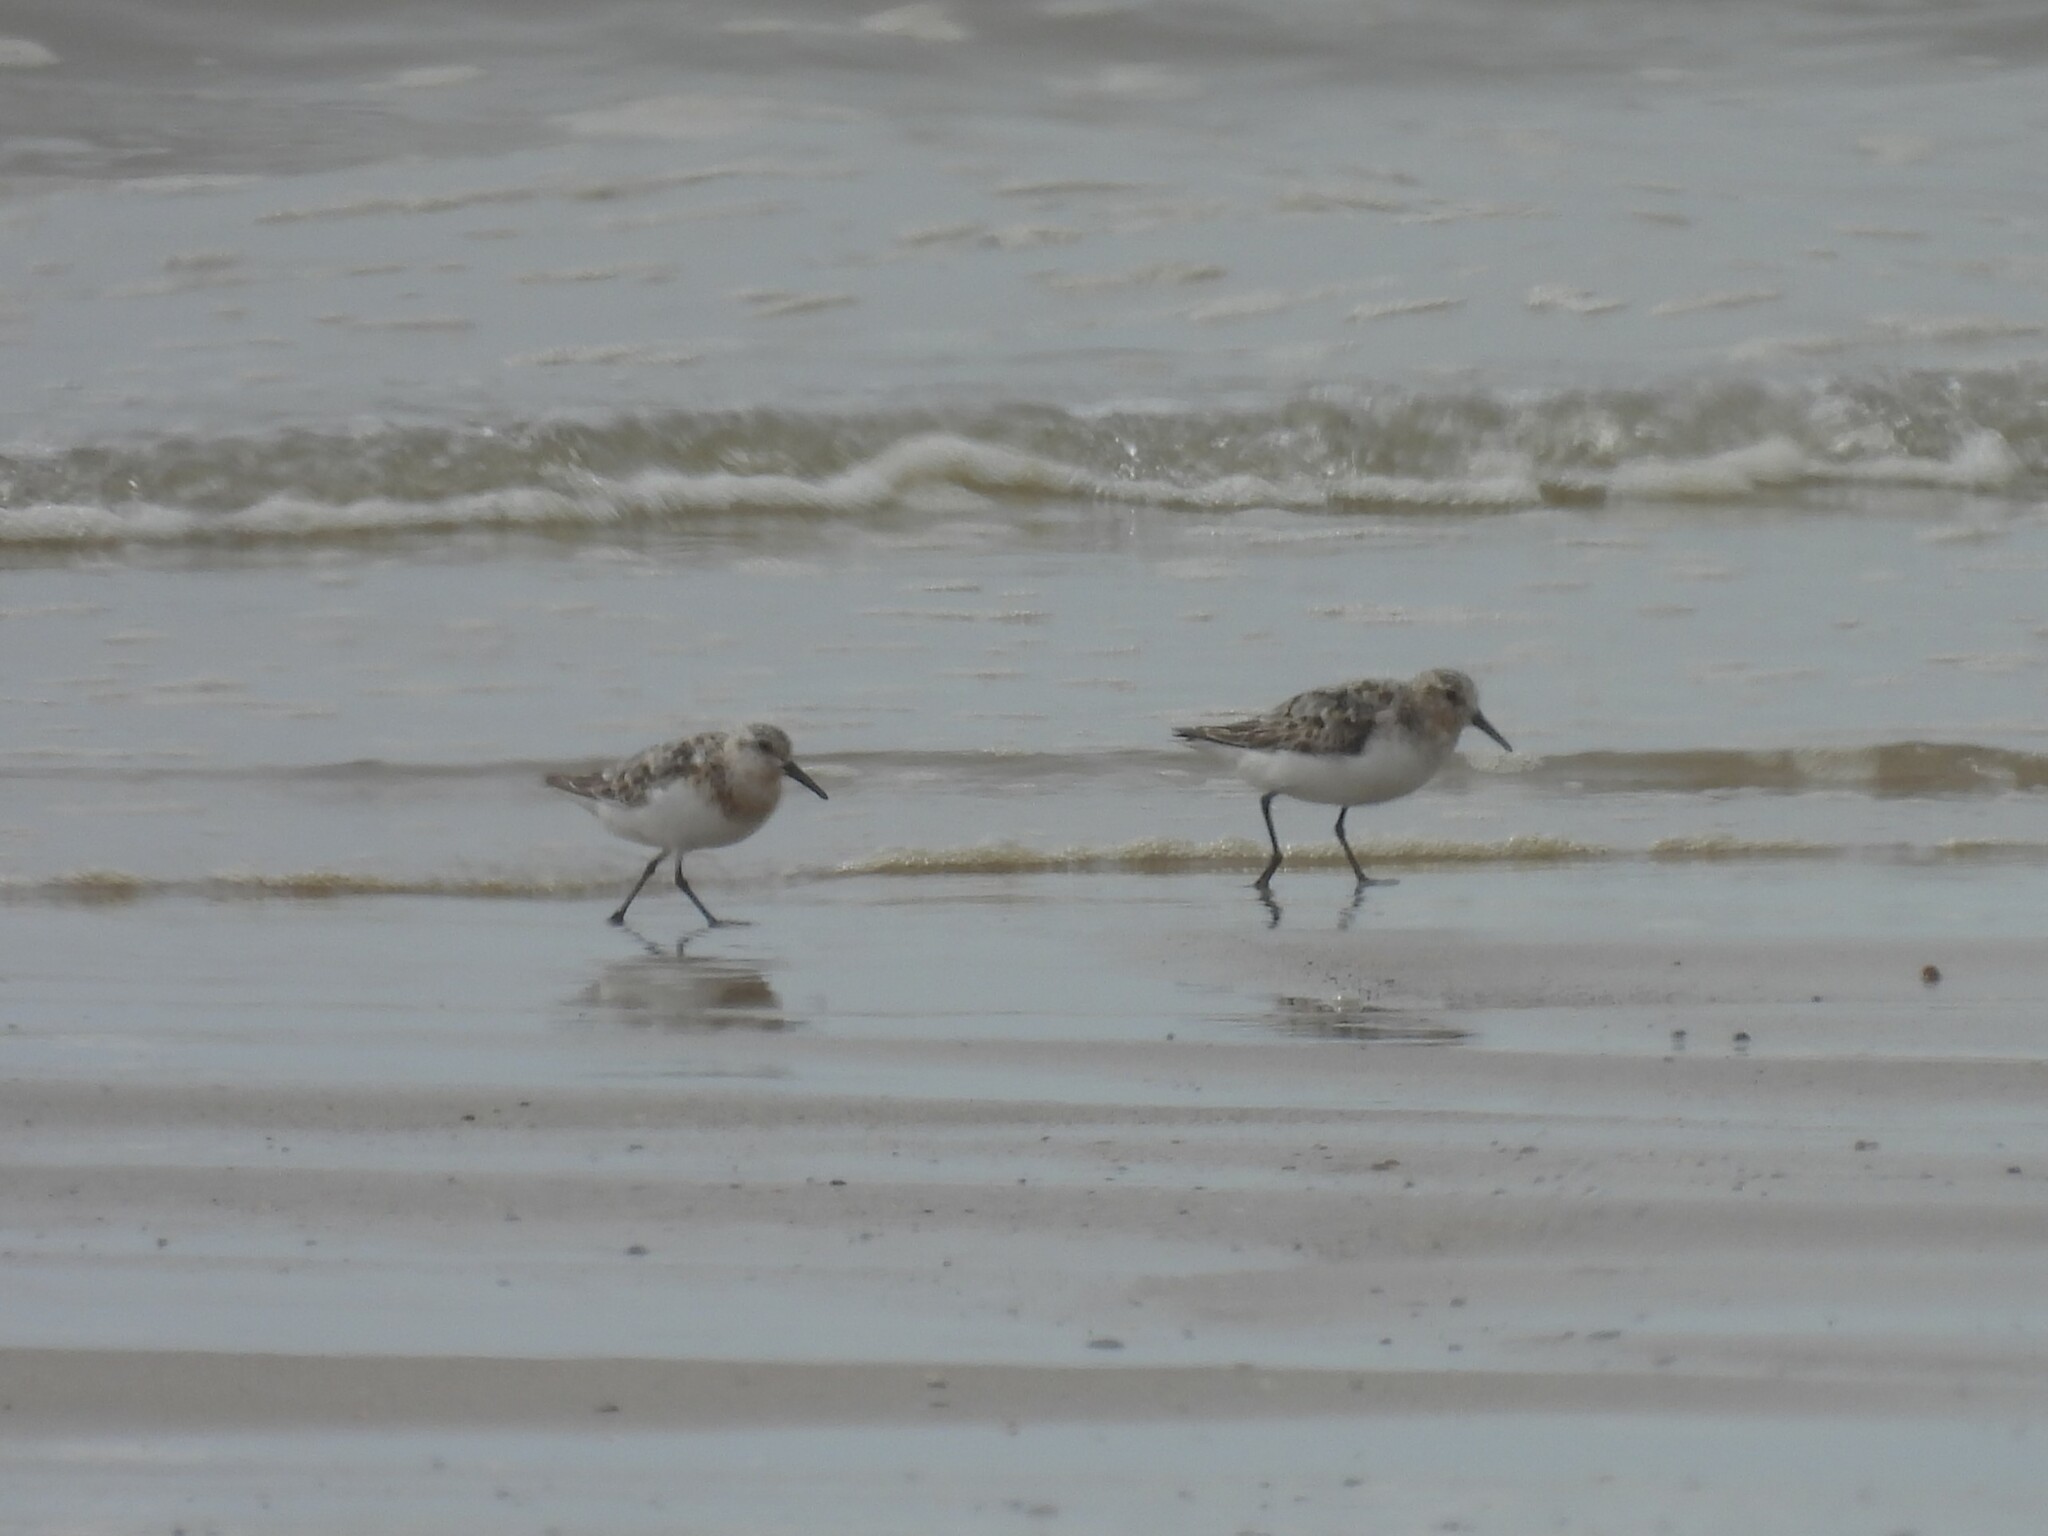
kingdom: Animalia
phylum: Chordata
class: Aves
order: Charadriiformes
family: Scolopacidae
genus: Calidris
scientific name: Calidris alba
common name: Sanderling
